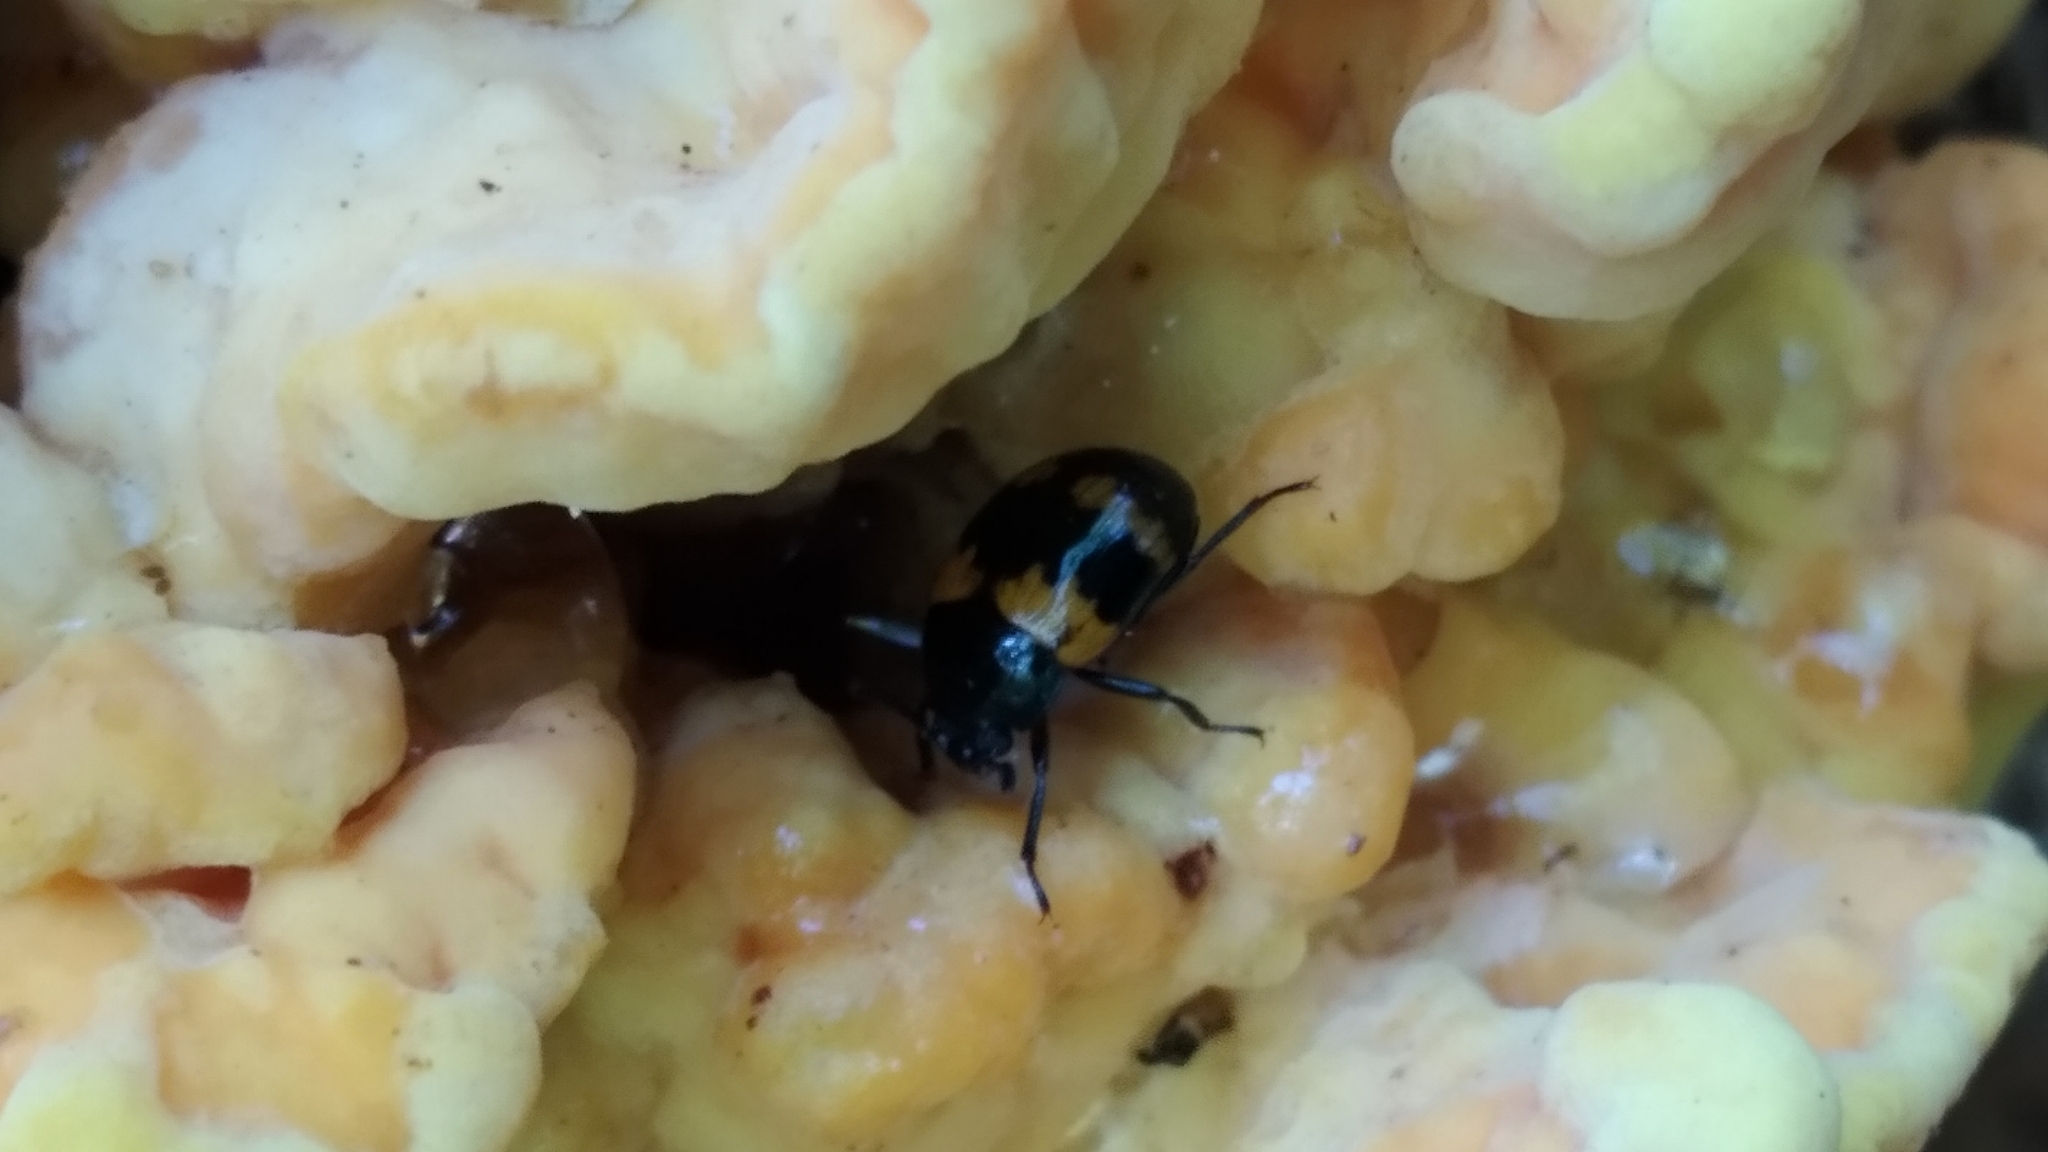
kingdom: Animalia
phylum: Arthropoda
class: Insecta
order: Coleoptera
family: Tenebrionidae
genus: Diaperis
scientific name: Diaperis boleti
